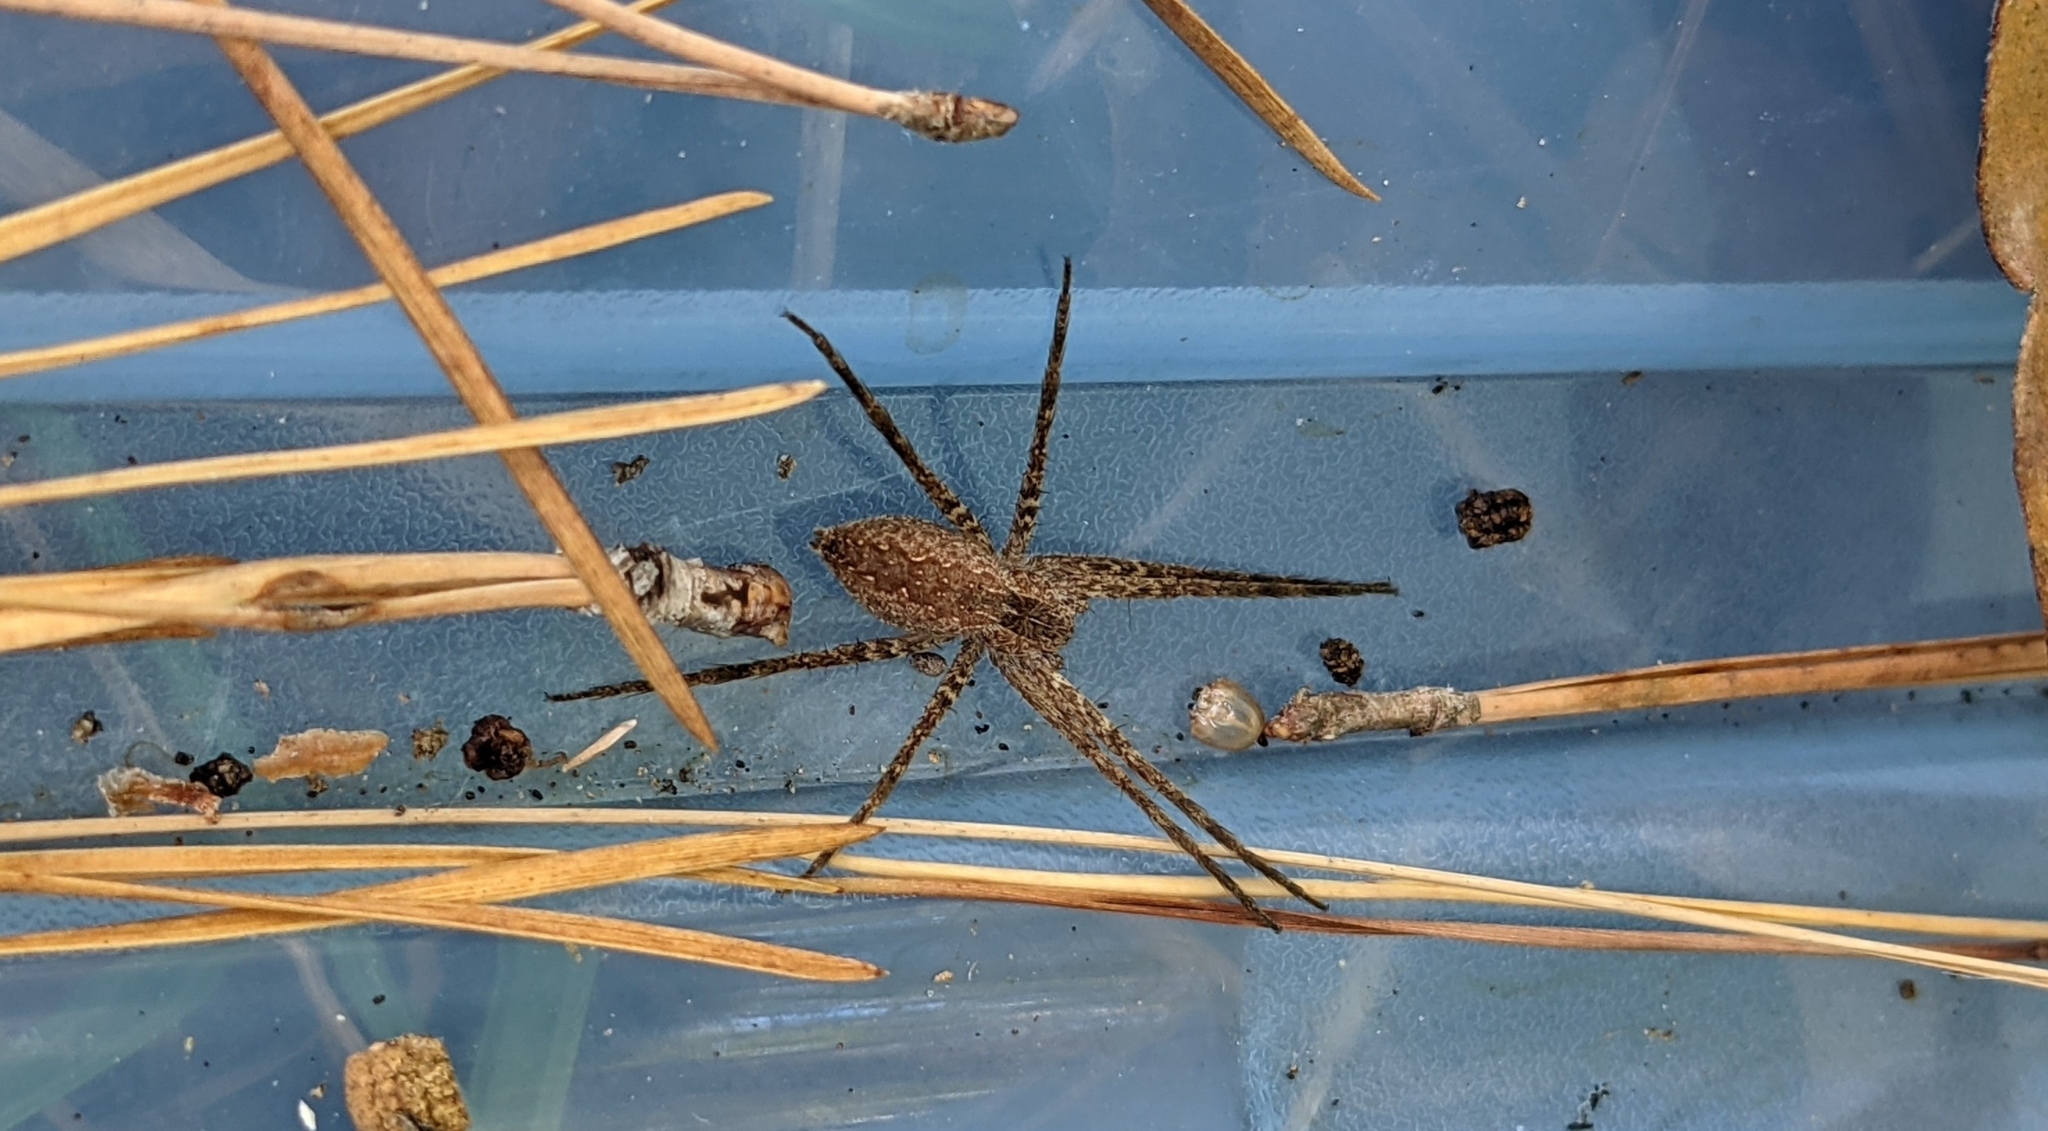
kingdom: Animalia
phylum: Arthropoda
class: Arachnida
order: Araneae
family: Pisauridae
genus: Pisaurina
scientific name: Pisaurina mira
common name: American nursery web spider
